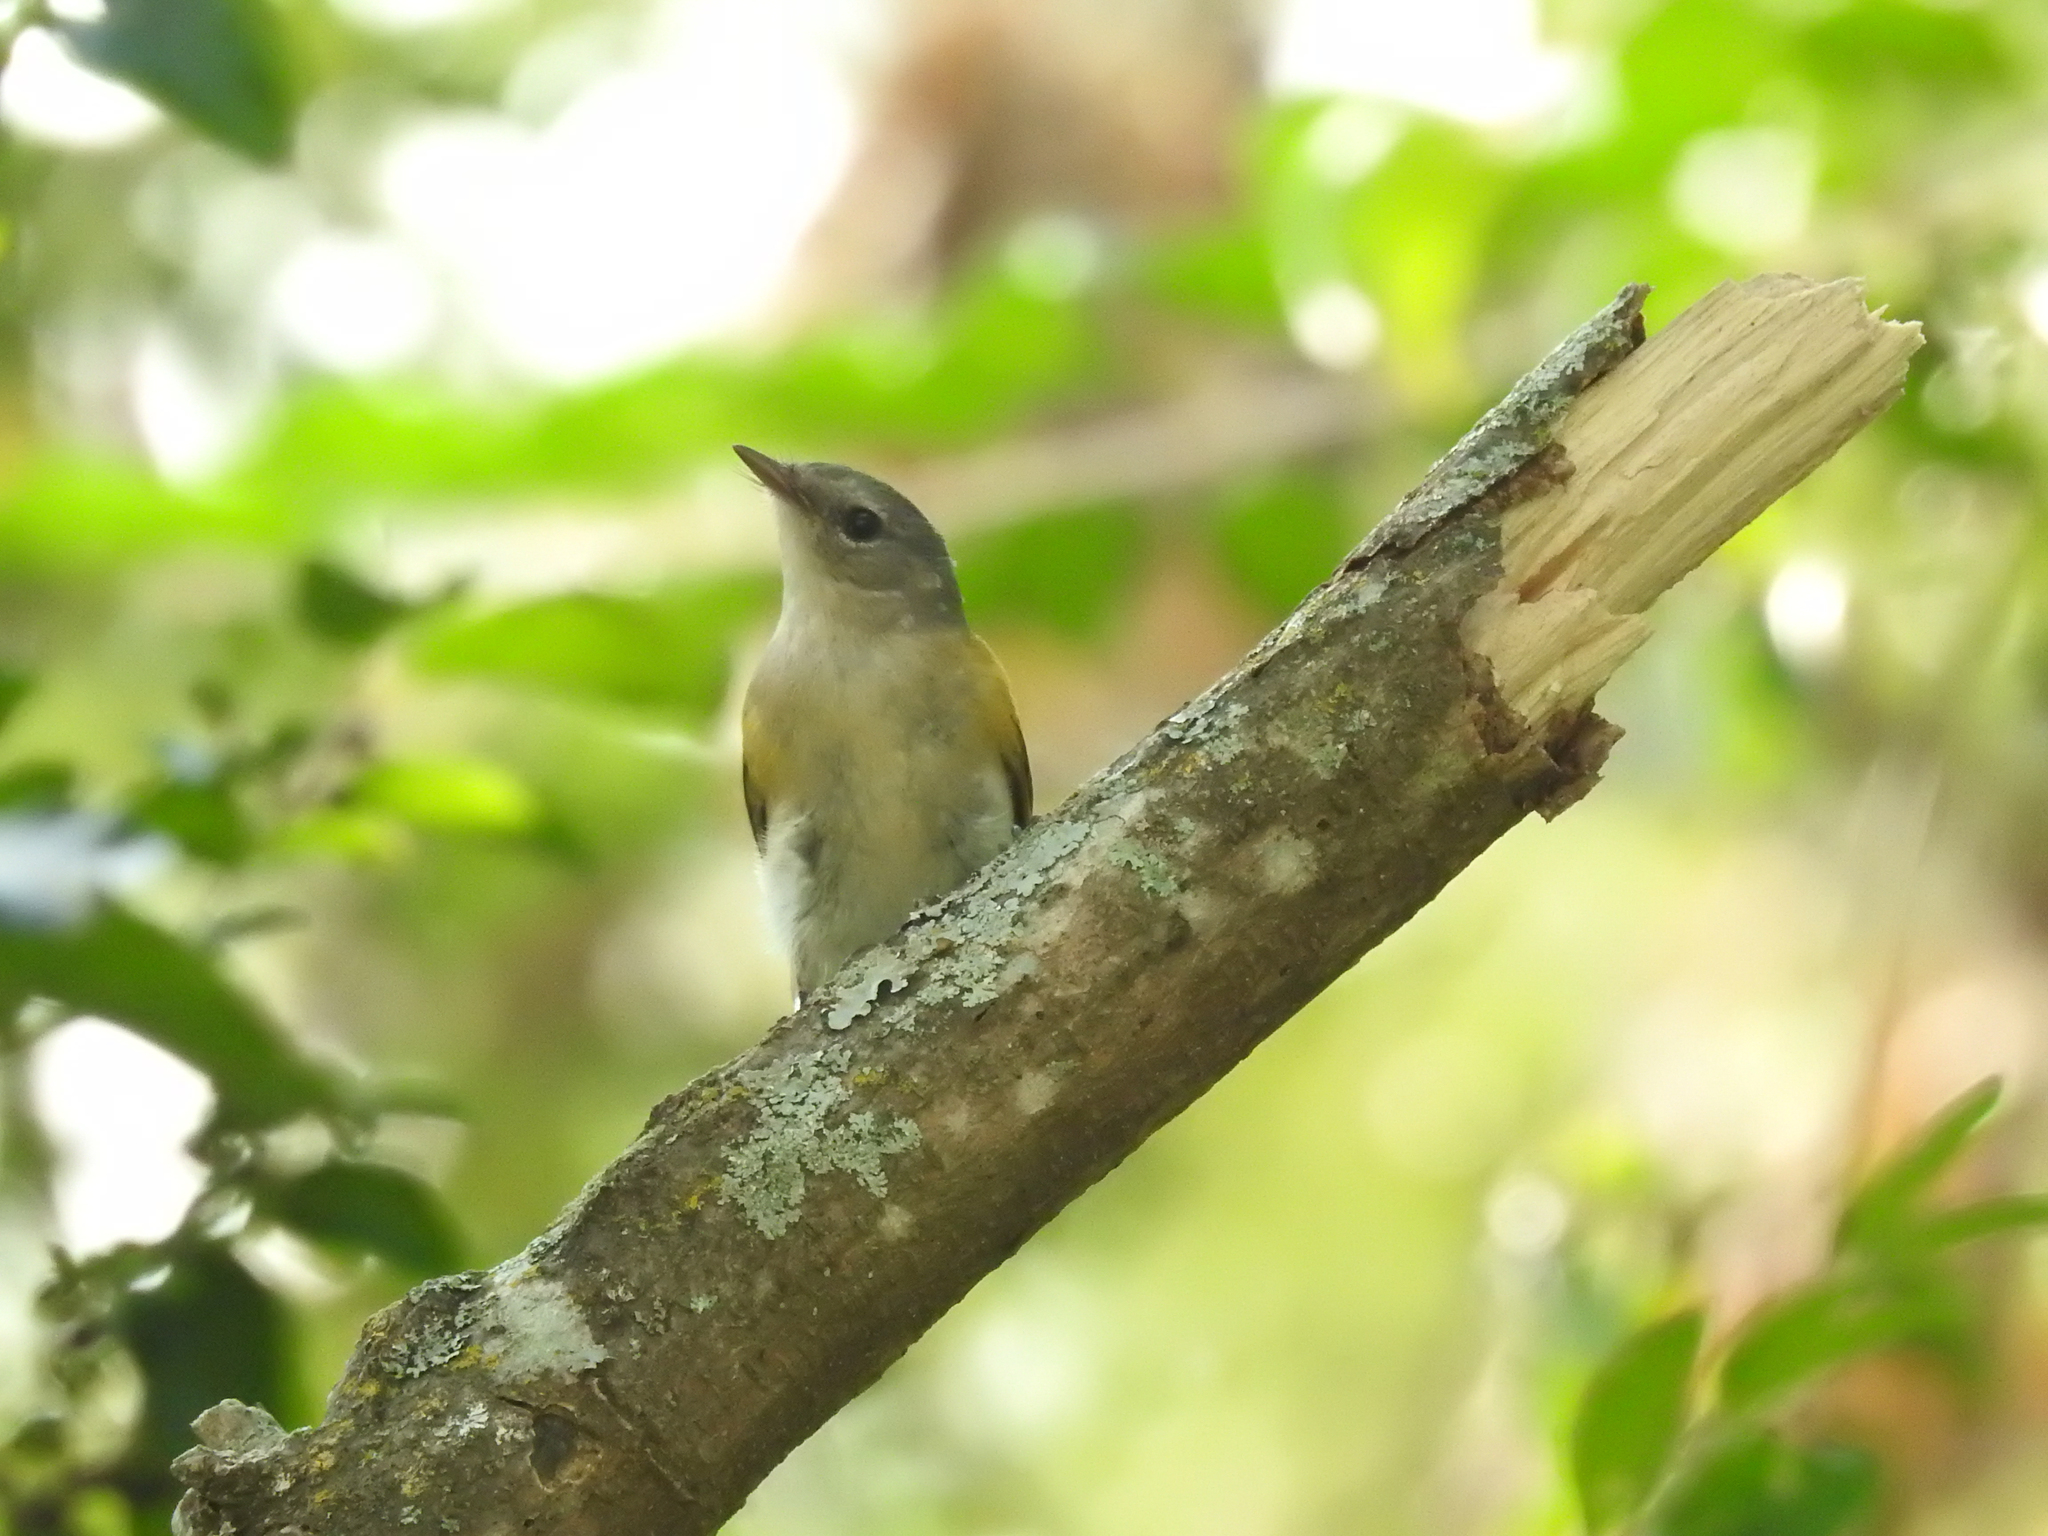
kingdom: Animalia
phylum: Chordata
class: Aves
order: Passeriformes
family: Parulidae
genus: Setophaga
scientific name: Setophaga ruticilla
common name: American redstart
